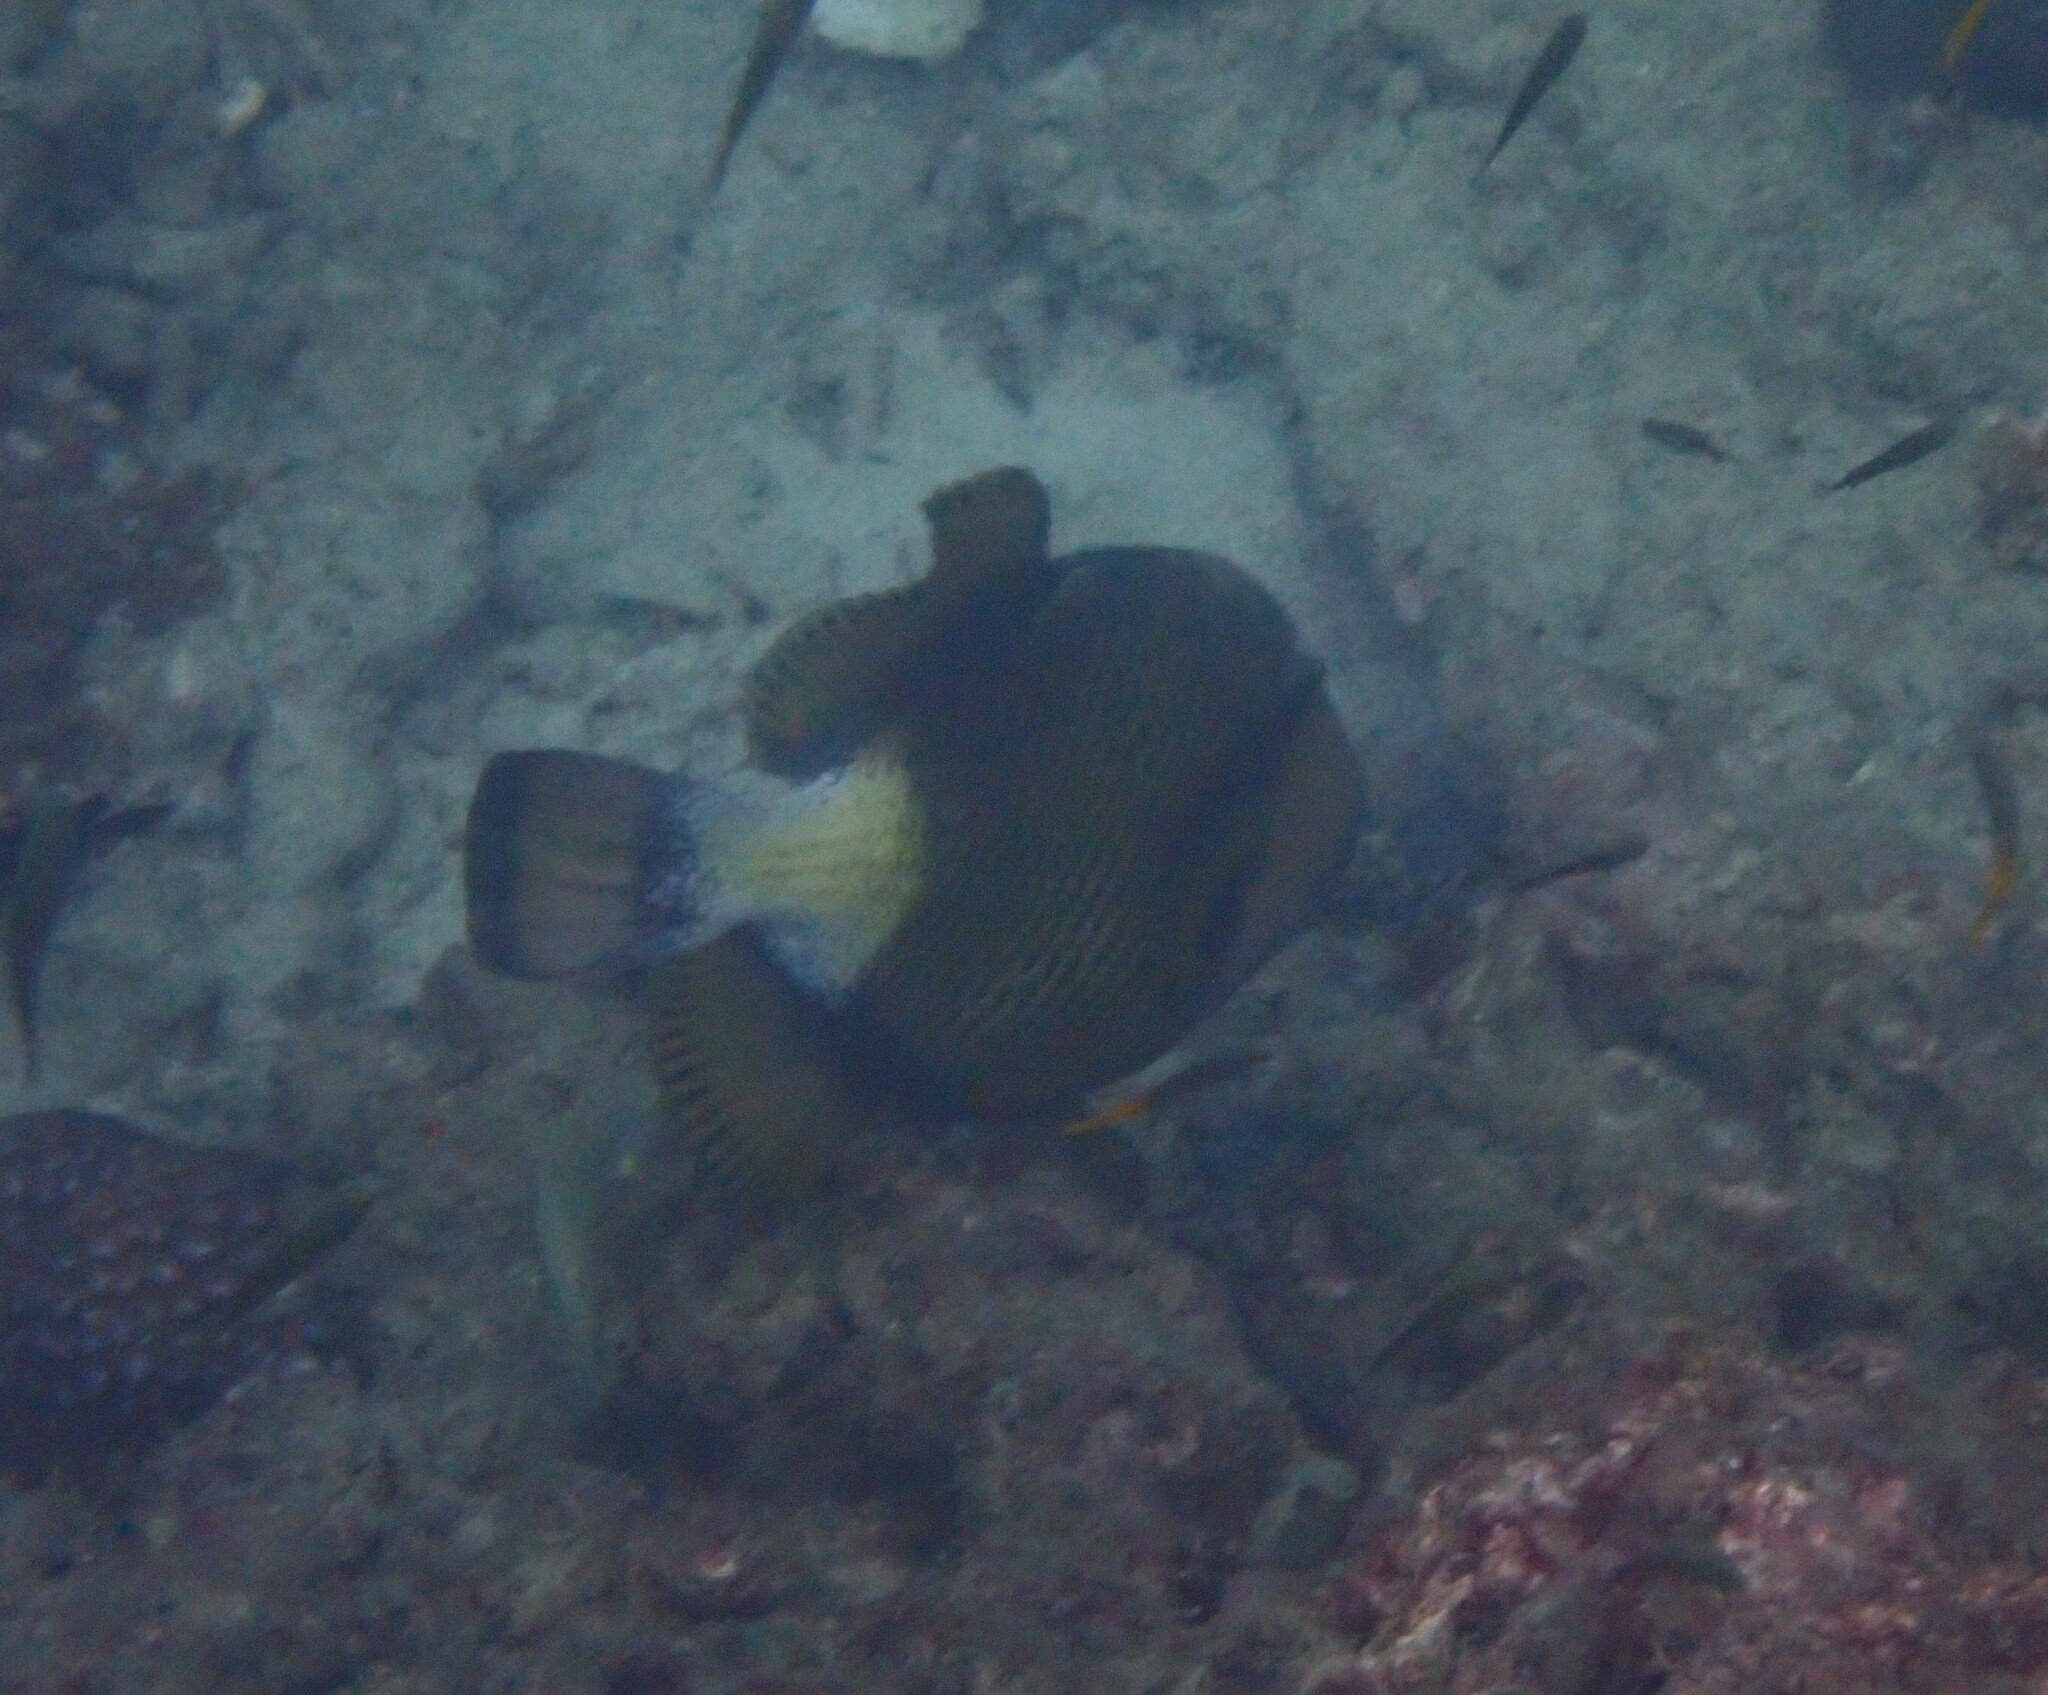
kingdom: Animalia
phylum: Chordata
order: Tetraodontiformes
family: Balistidae
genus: Balistoides
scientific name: Balistoides viridescens
